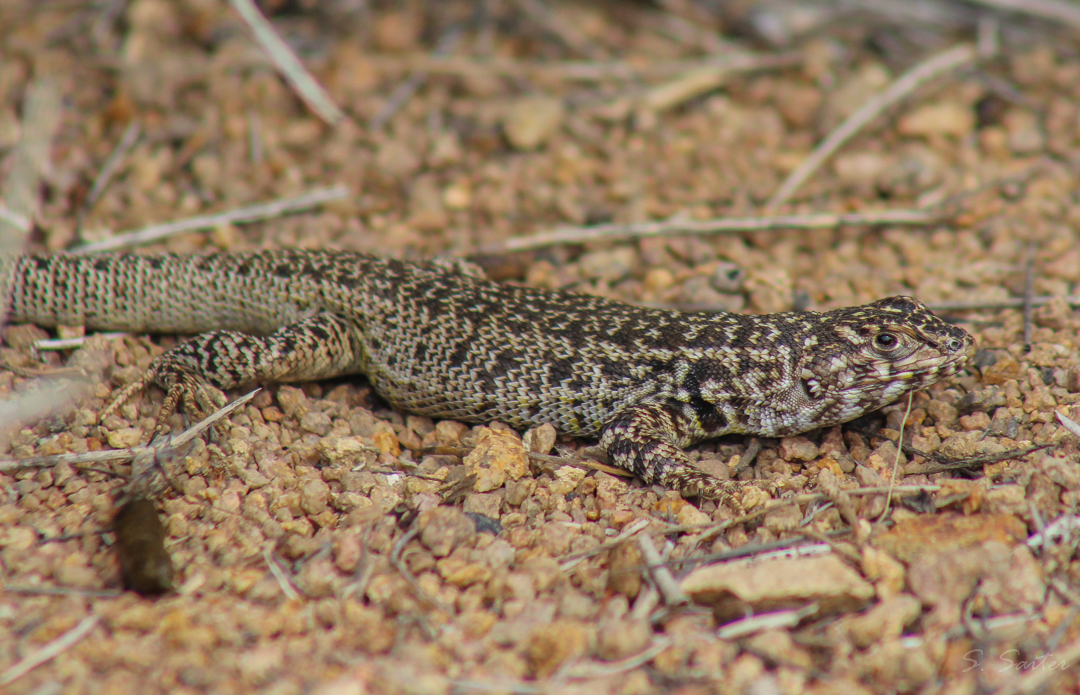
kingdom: Animalia
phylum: Chordata
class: Squamata
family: Liolaemidae
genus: Liolaemus
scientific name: Liolaemus zapallarensis
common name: Zapallaren tree iguana
